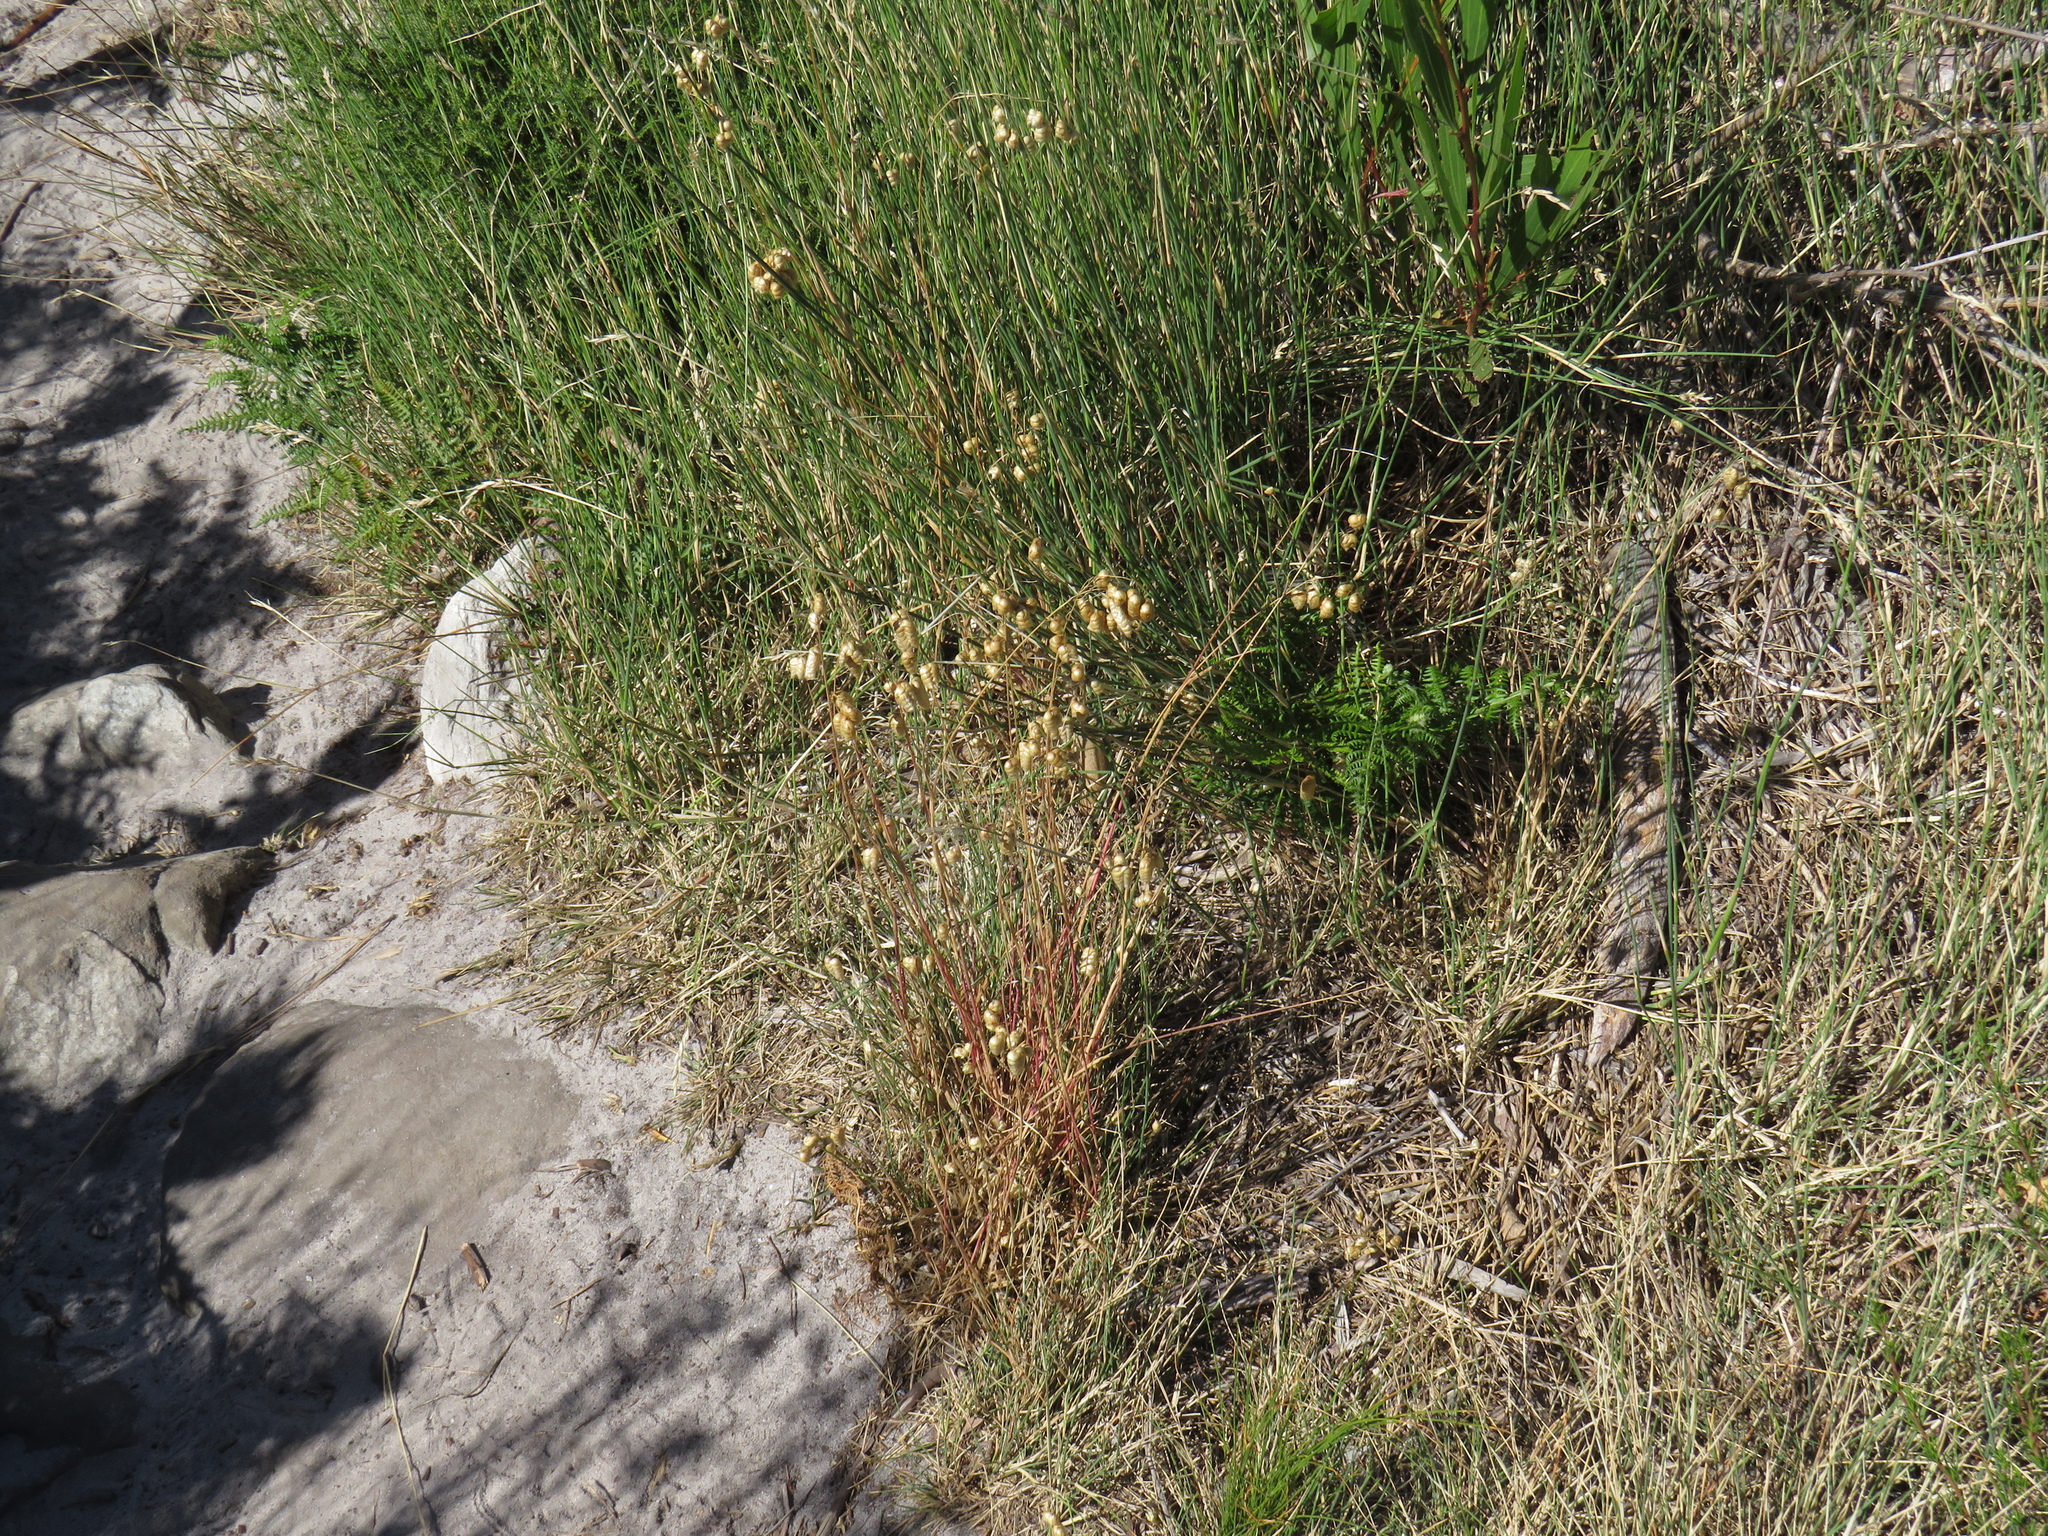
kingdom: Plantae
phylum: Tracheophyta
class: Liliopsida
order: Poales
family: Poaceae
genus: Briza
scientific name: Briza maxima
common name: Big quakinggrass
